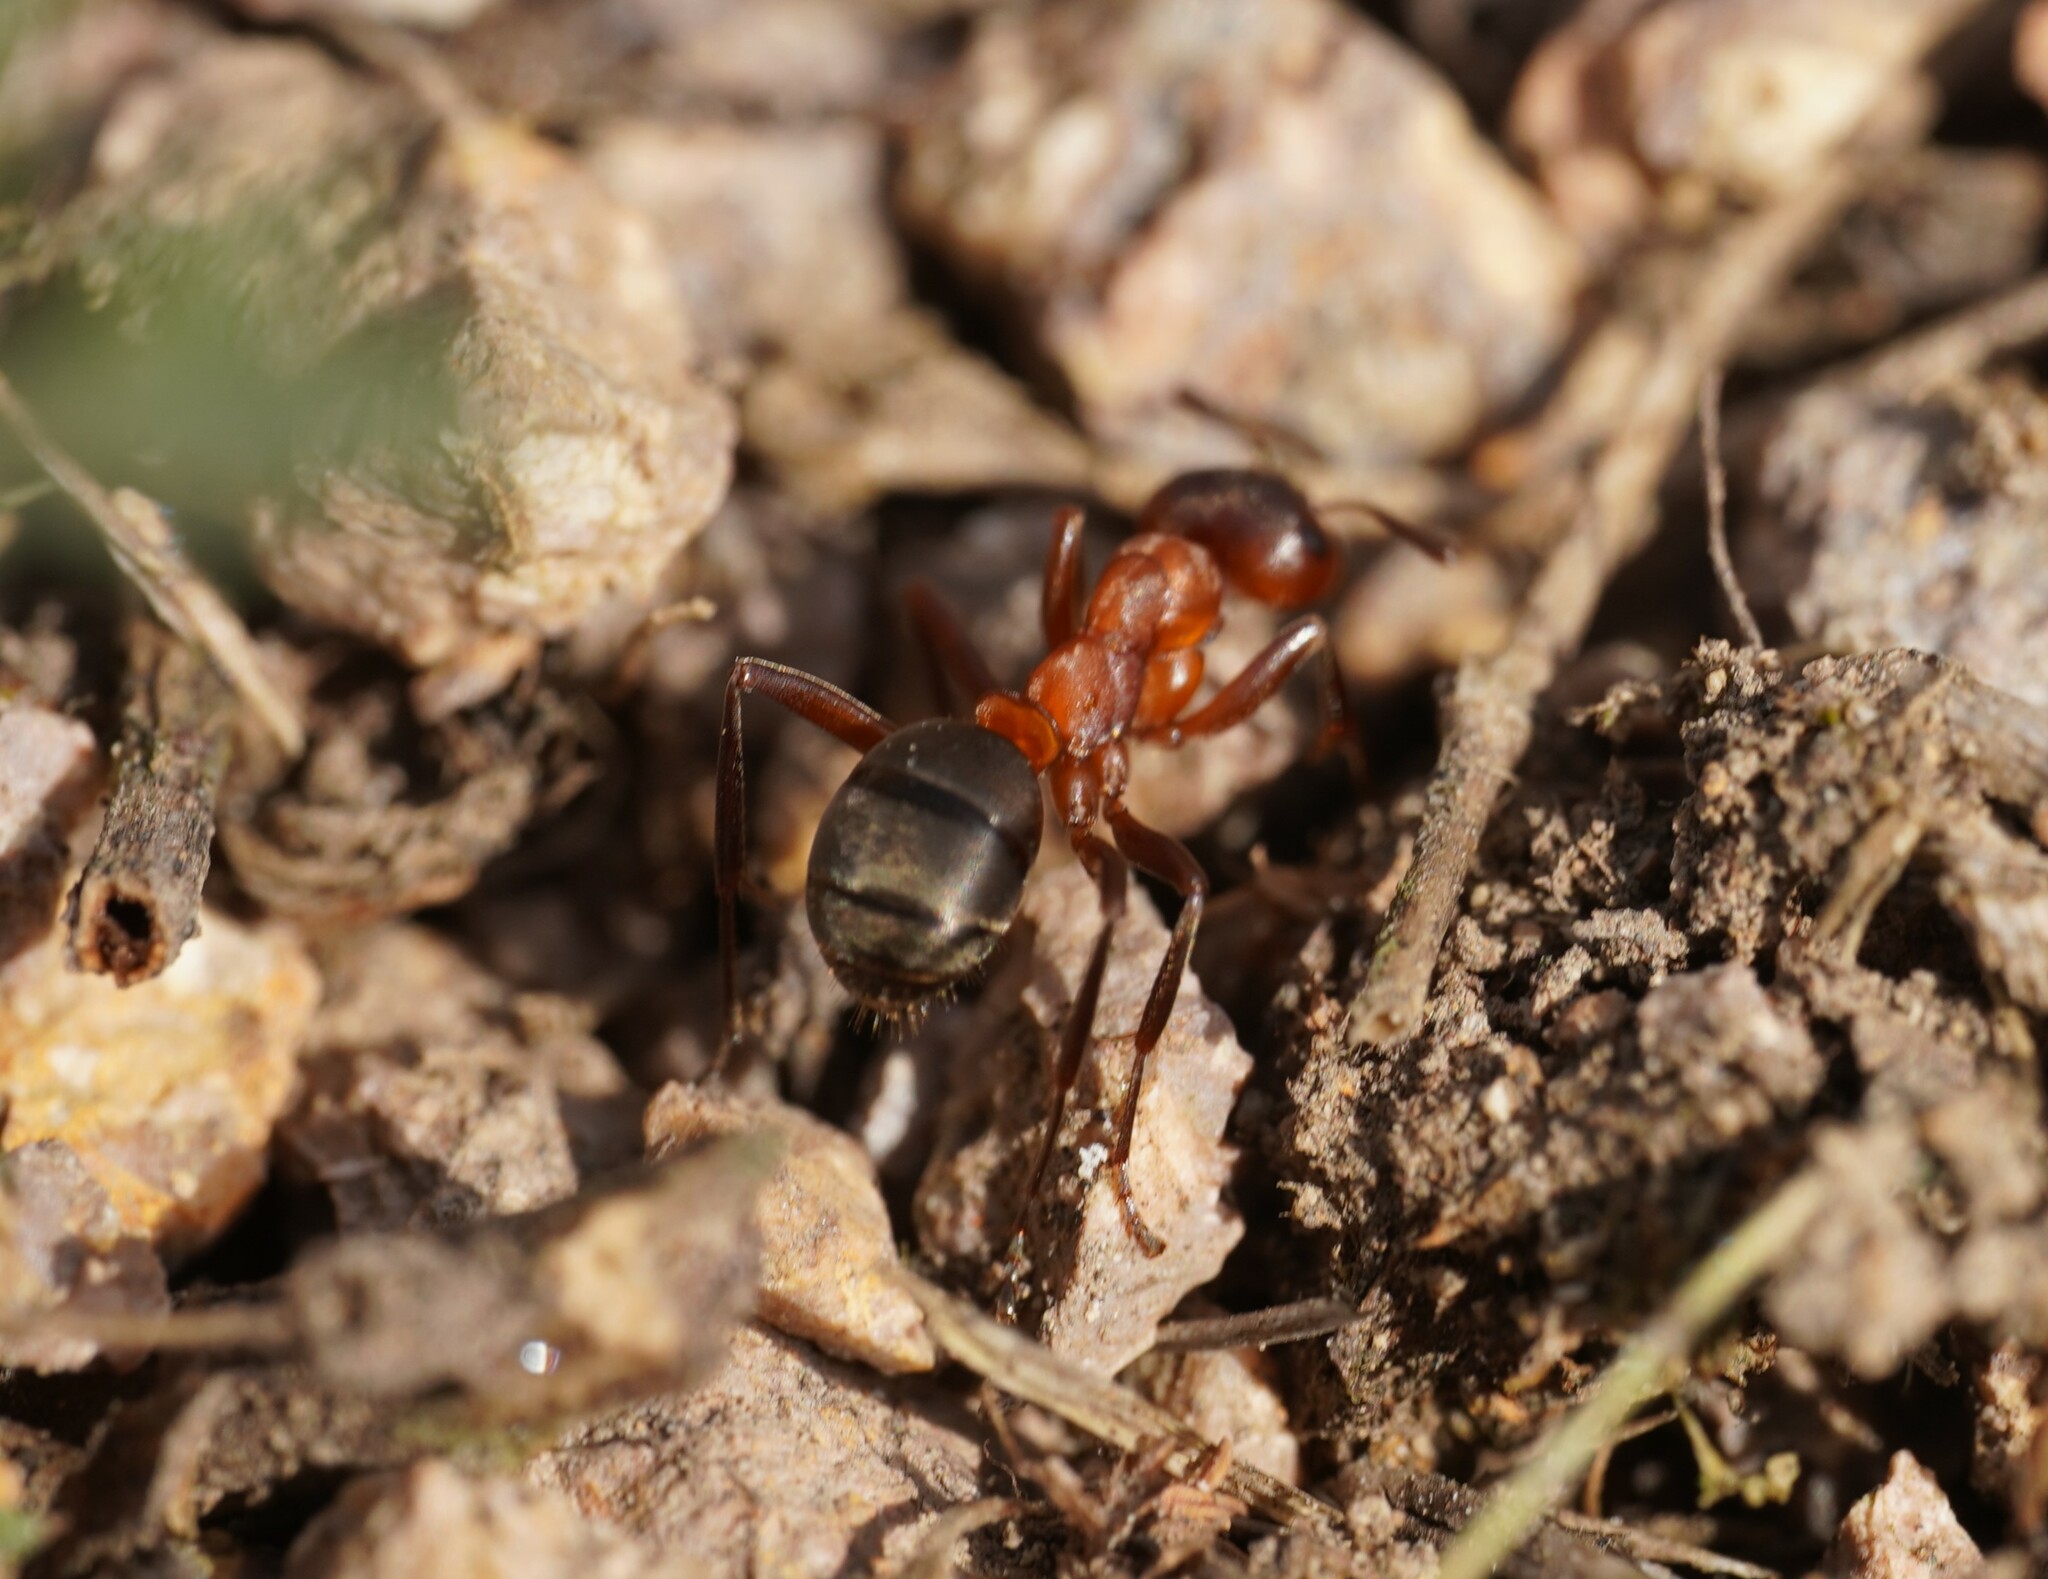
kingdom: Animalia
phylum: Arthropoda
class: Insecta
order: Hymenoptera
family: Formicidae
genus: Formica
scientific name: Formica sanguinea
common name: Blood-red ant
